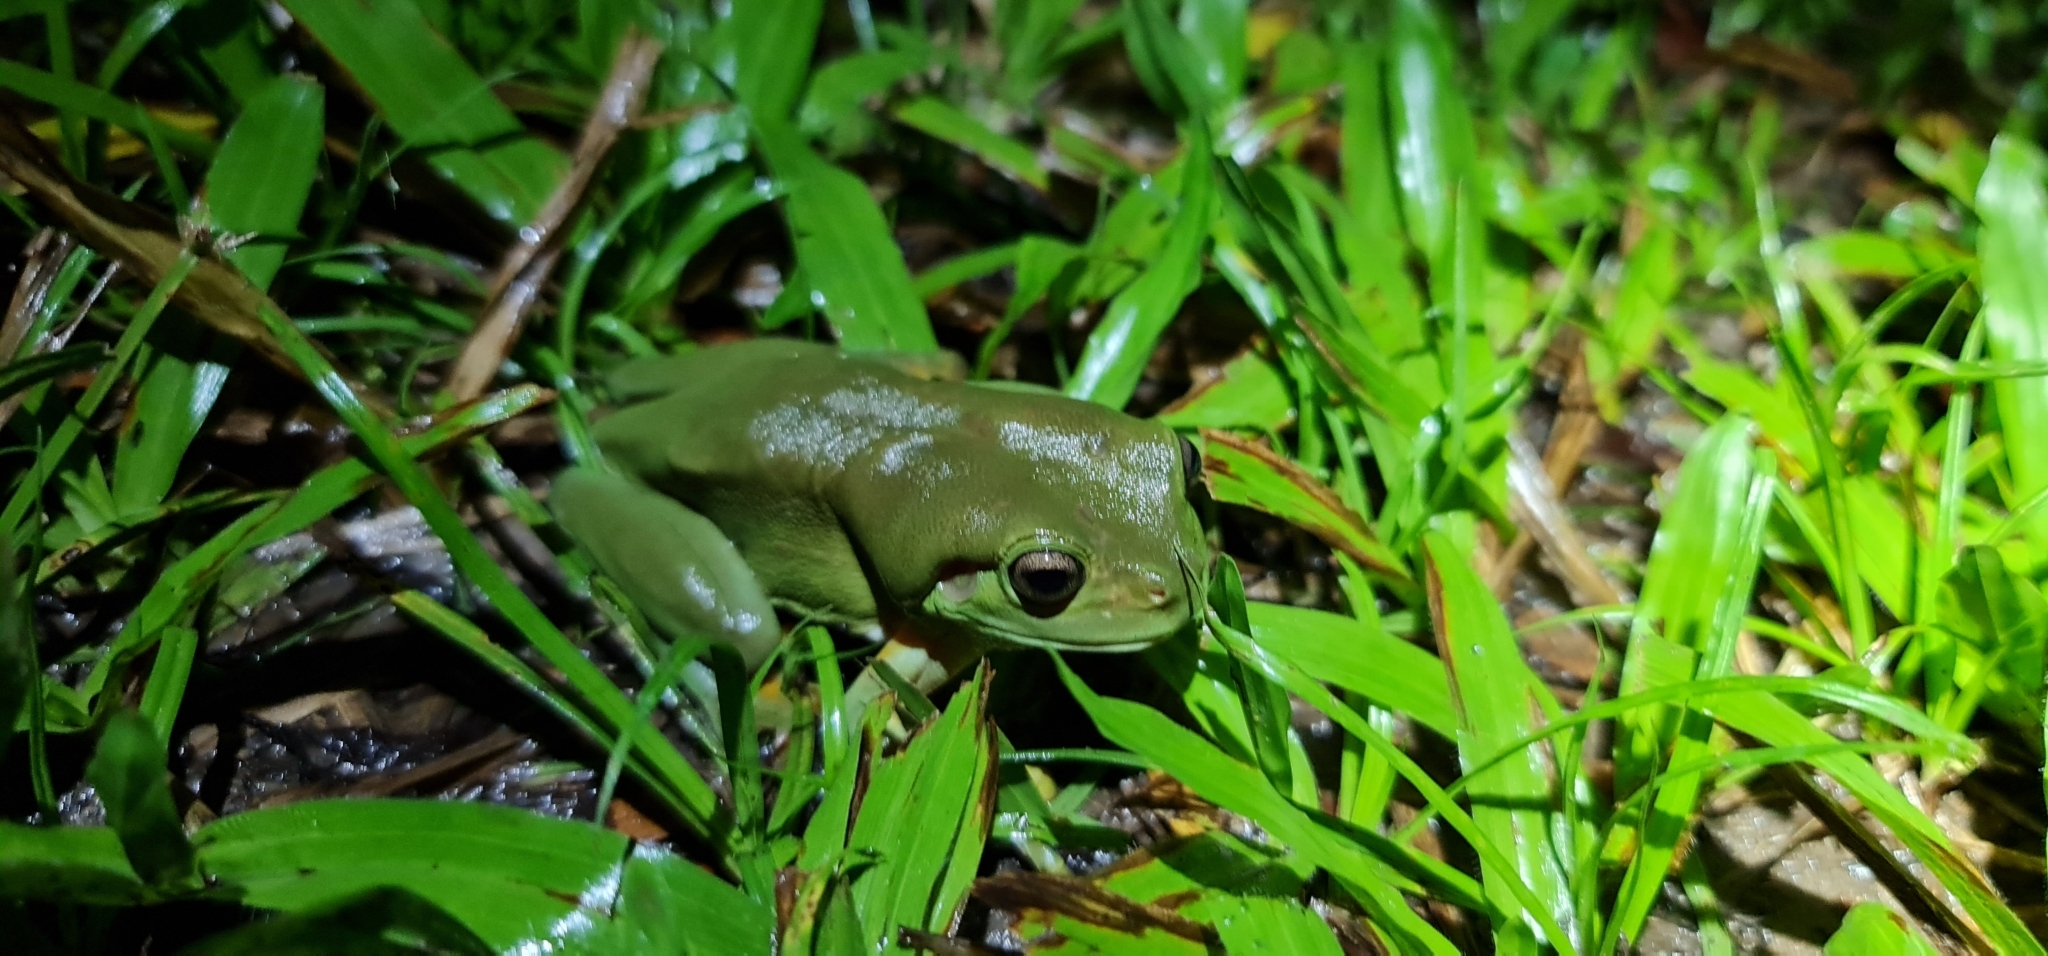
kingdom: Animalia
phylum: Chordata
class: Amphibia
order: Anura
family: Pelodryadidae
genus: Ranoidea
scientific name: Ranoidea caerulea
